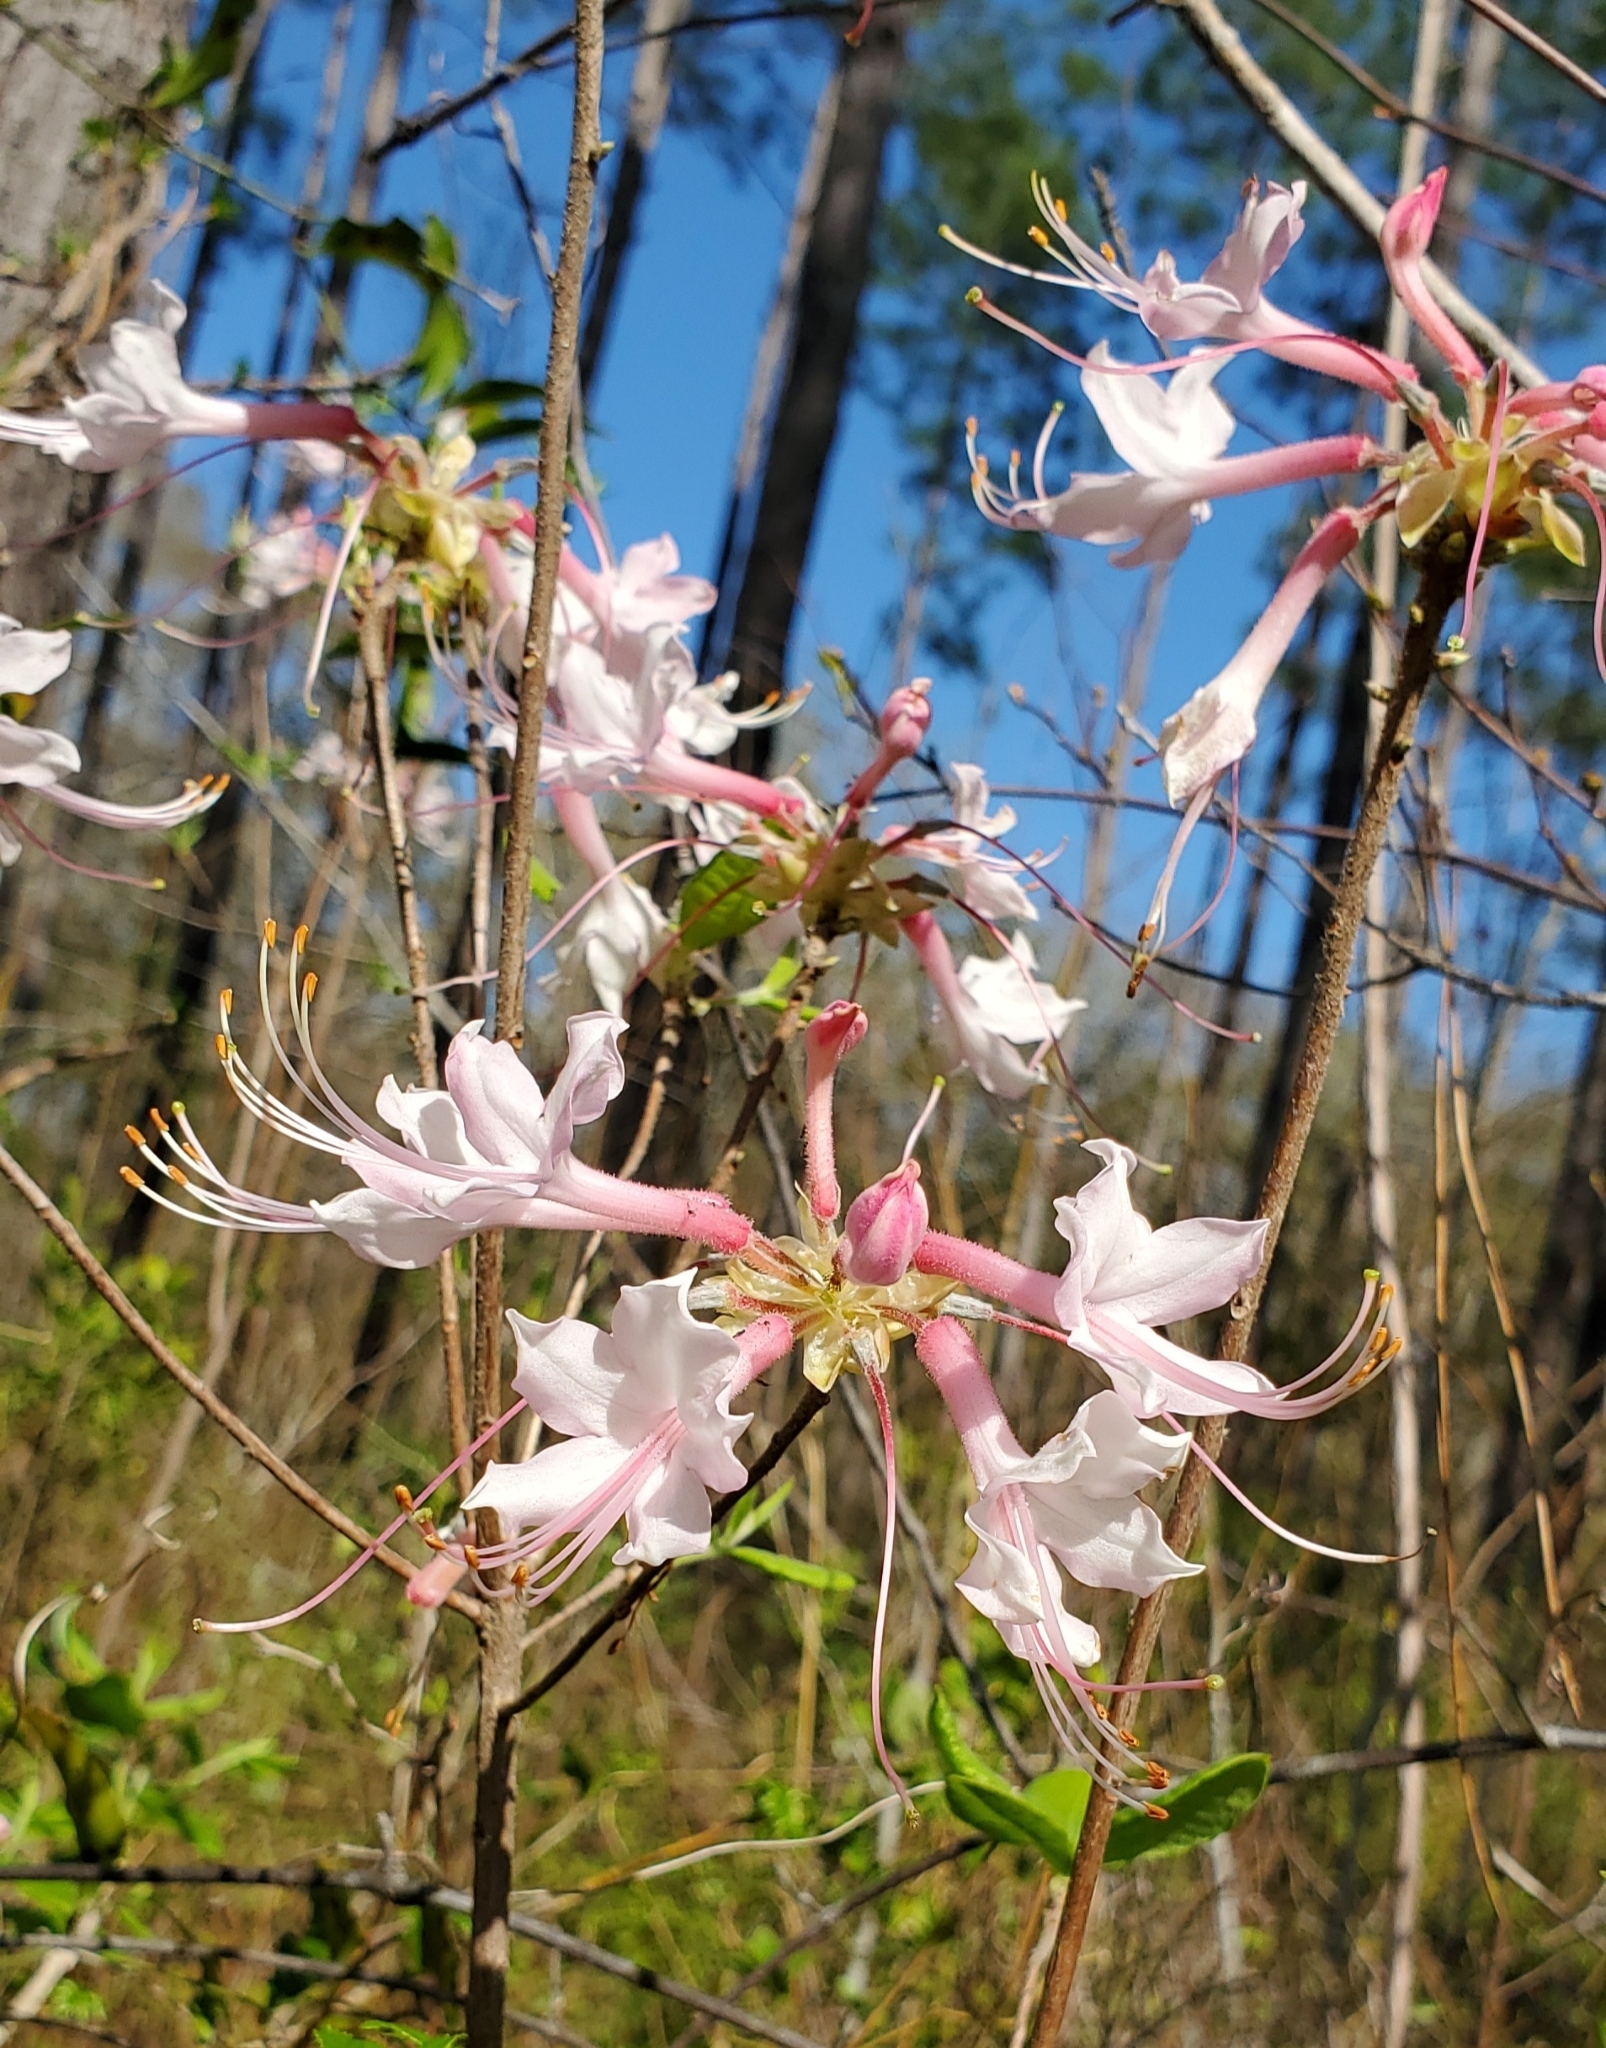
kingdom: Plantae
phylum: Tracheophyta
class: Magnoliopsida
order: Ericales
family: Ericaceae
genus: Rhododendron
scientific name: Rhododendron canescens
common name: Mountain azalea
